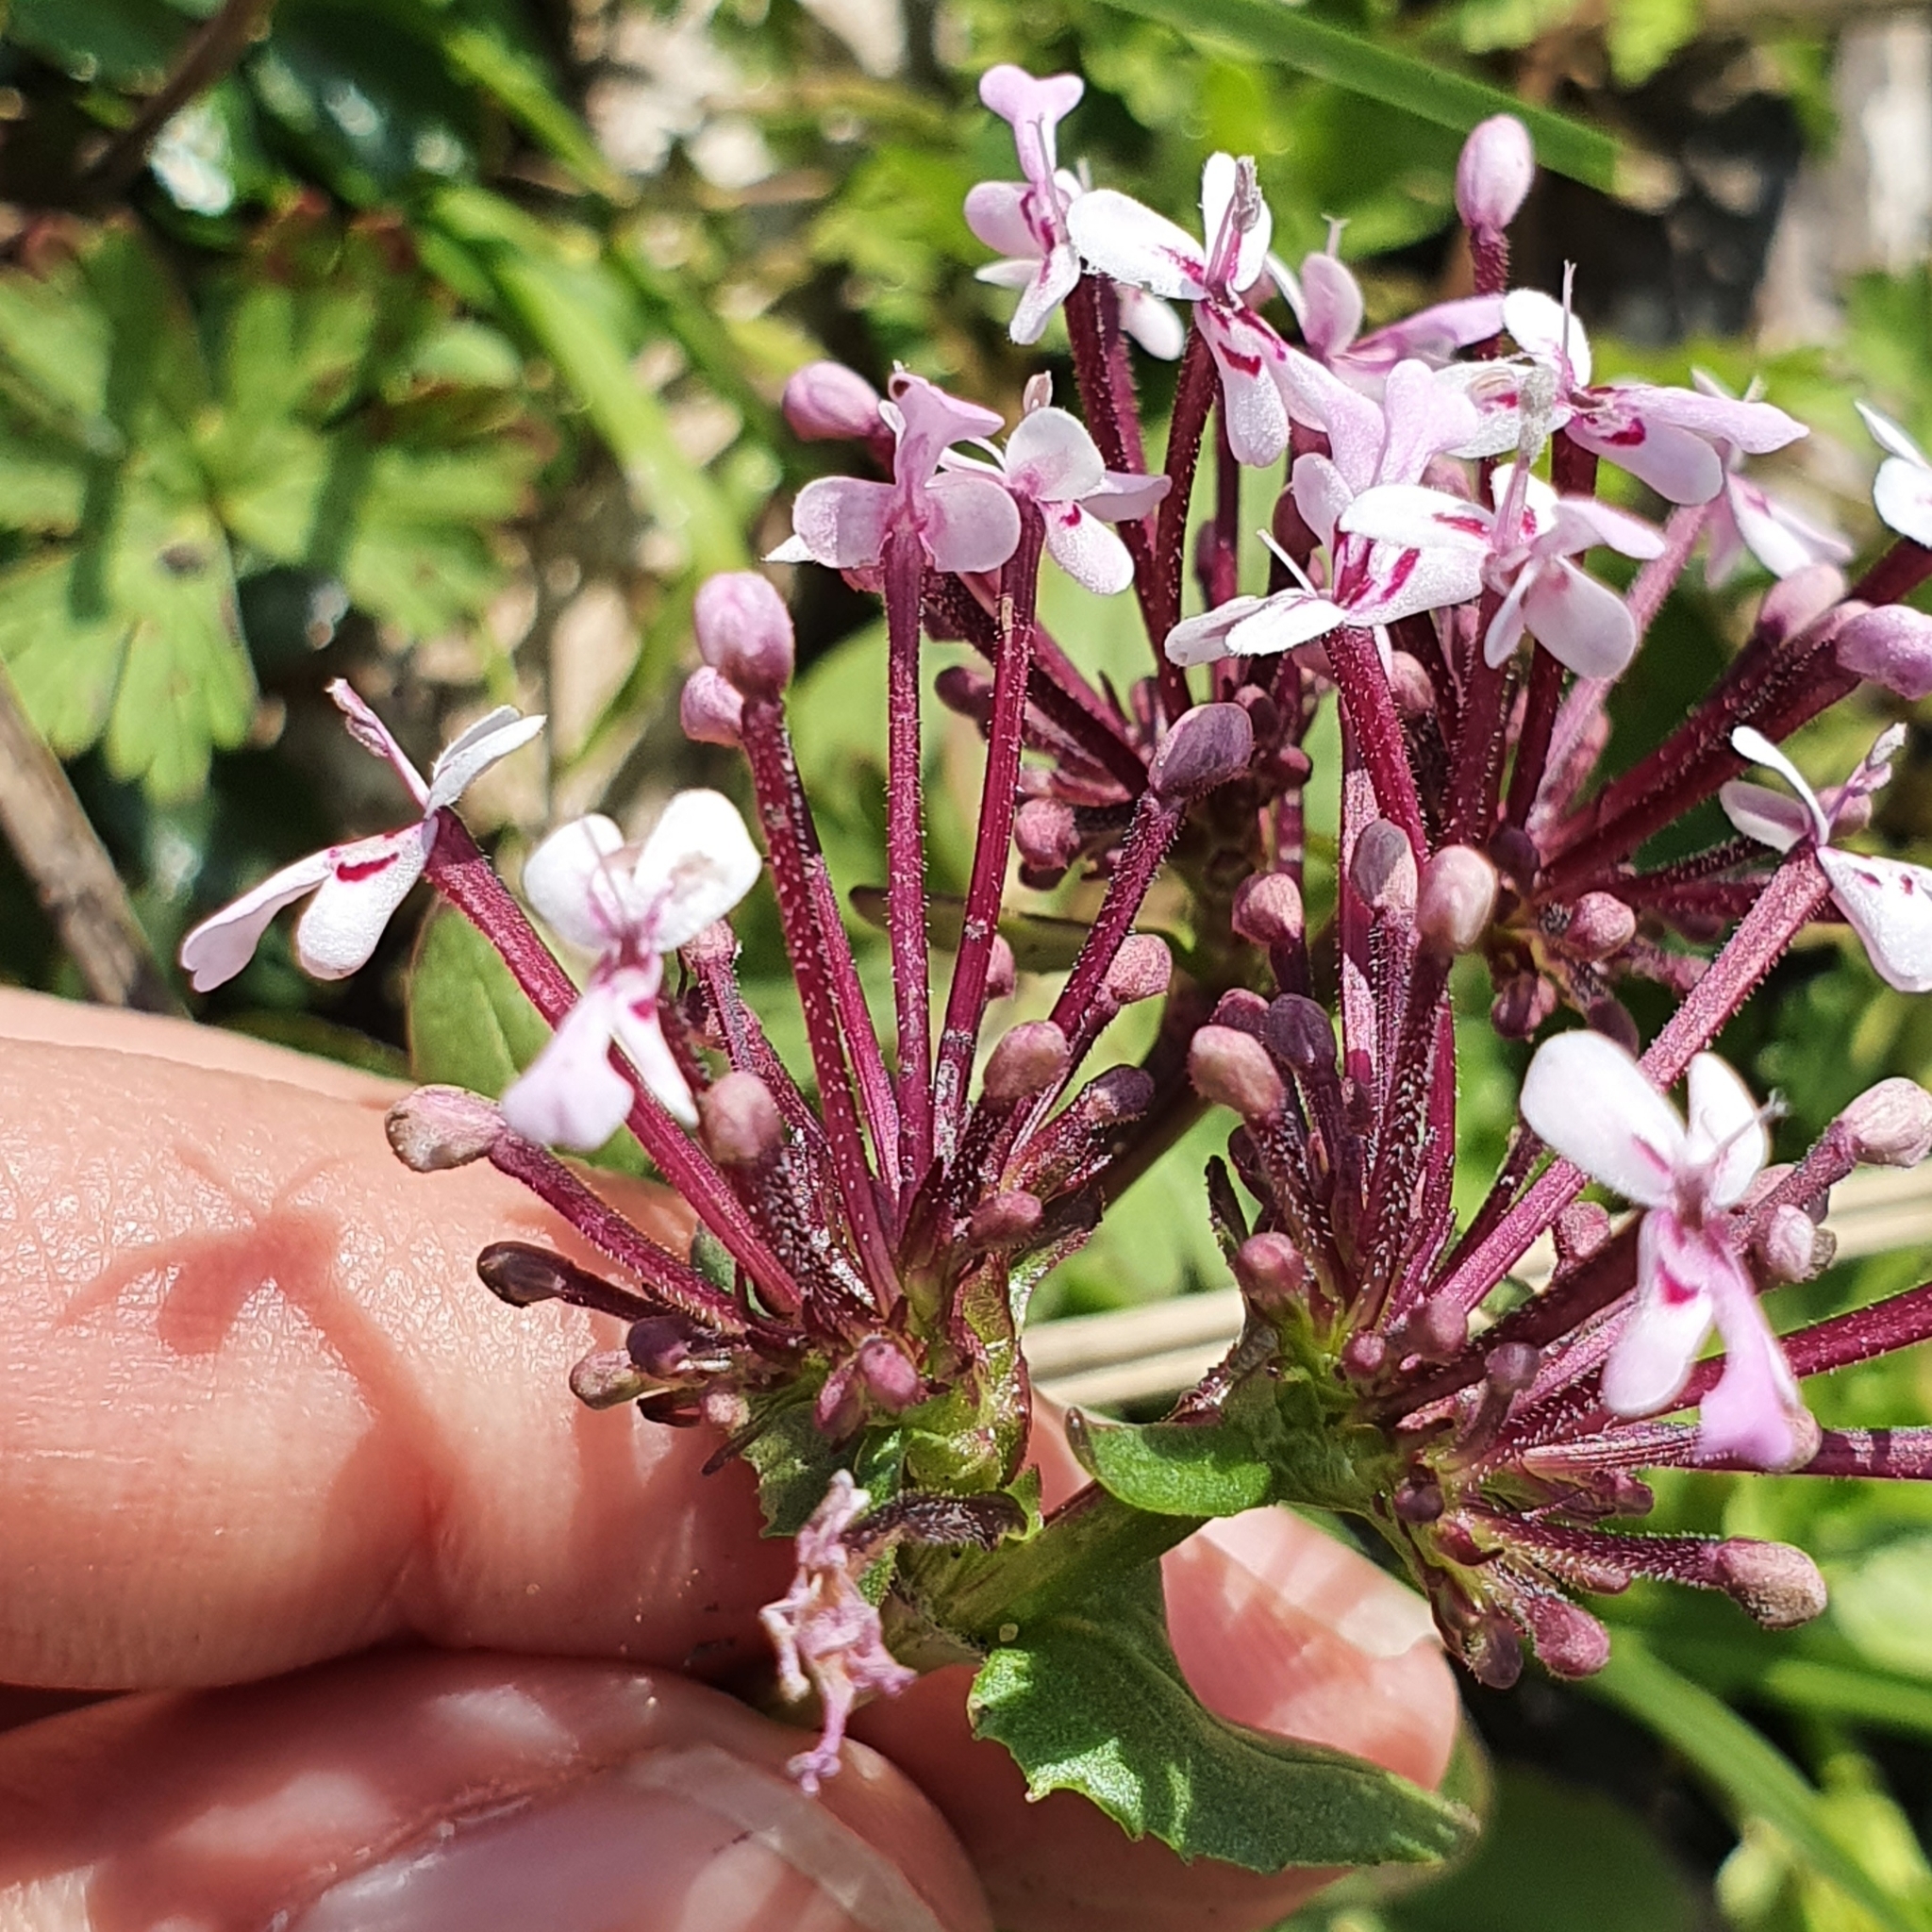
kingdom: Plantae
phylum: Tracheophyta
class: Magnoliopsida
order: Dipsacales
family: Caprifoliaceae
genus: Fedia
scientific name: Fedia graciliflora
